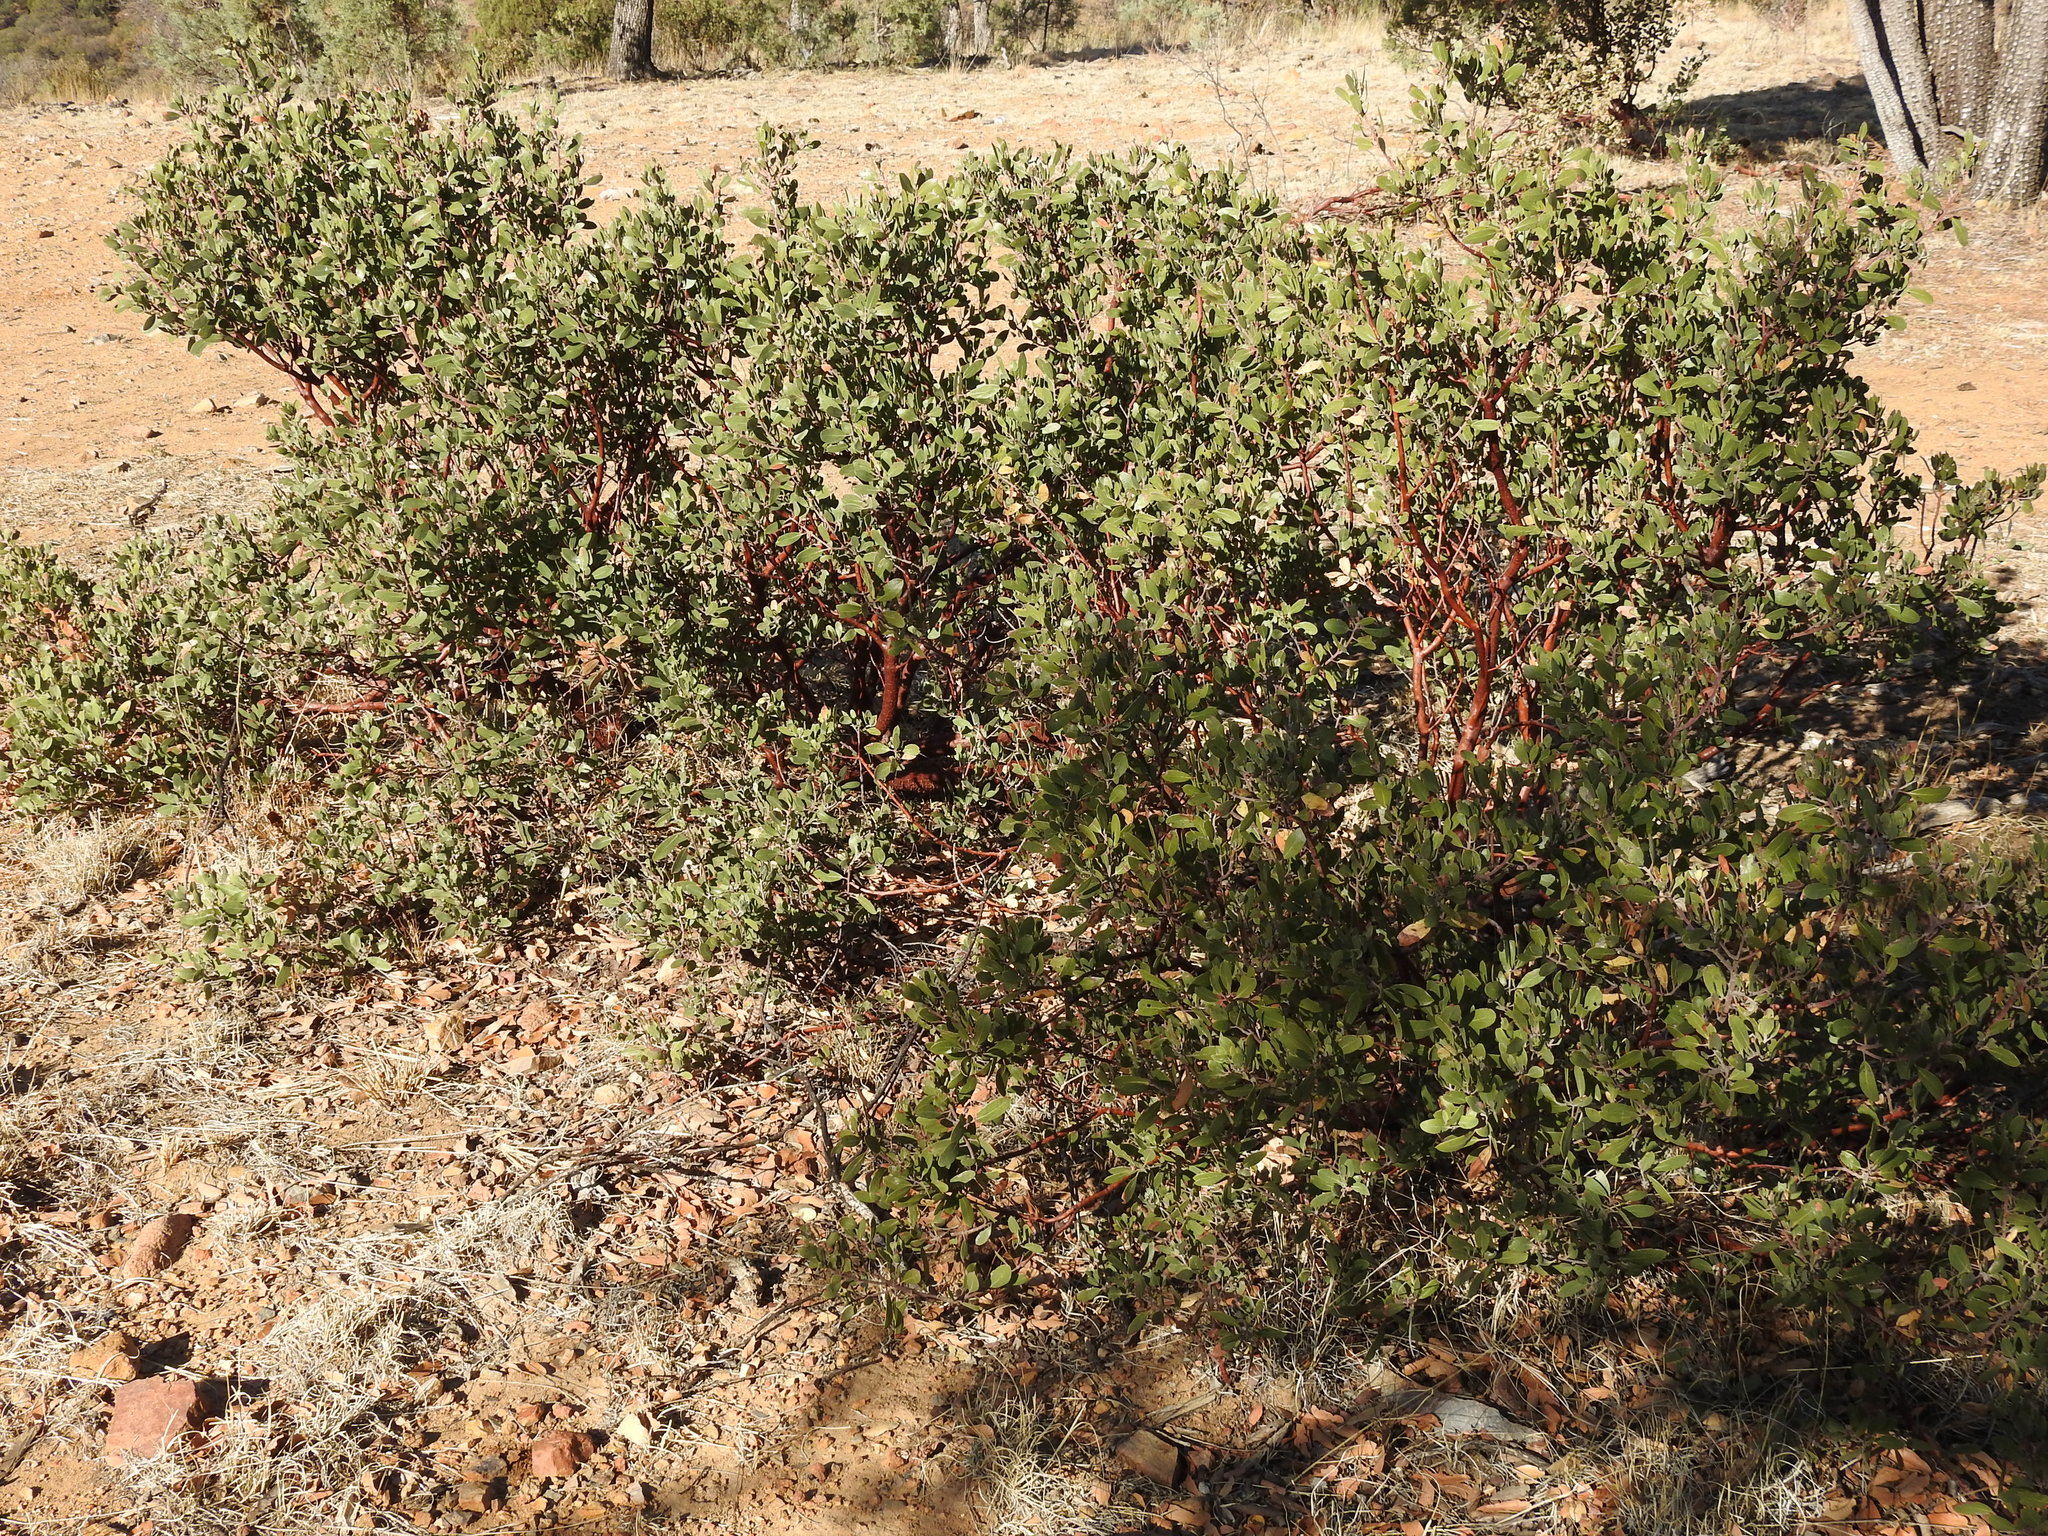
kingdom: Plantae
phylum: Tracheophyta
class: Magnoliopsida
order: Ericales
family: Ericaceae
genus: Arctostaphylos
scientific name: Arctostaphylos pungens
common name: Mexican manzanita
